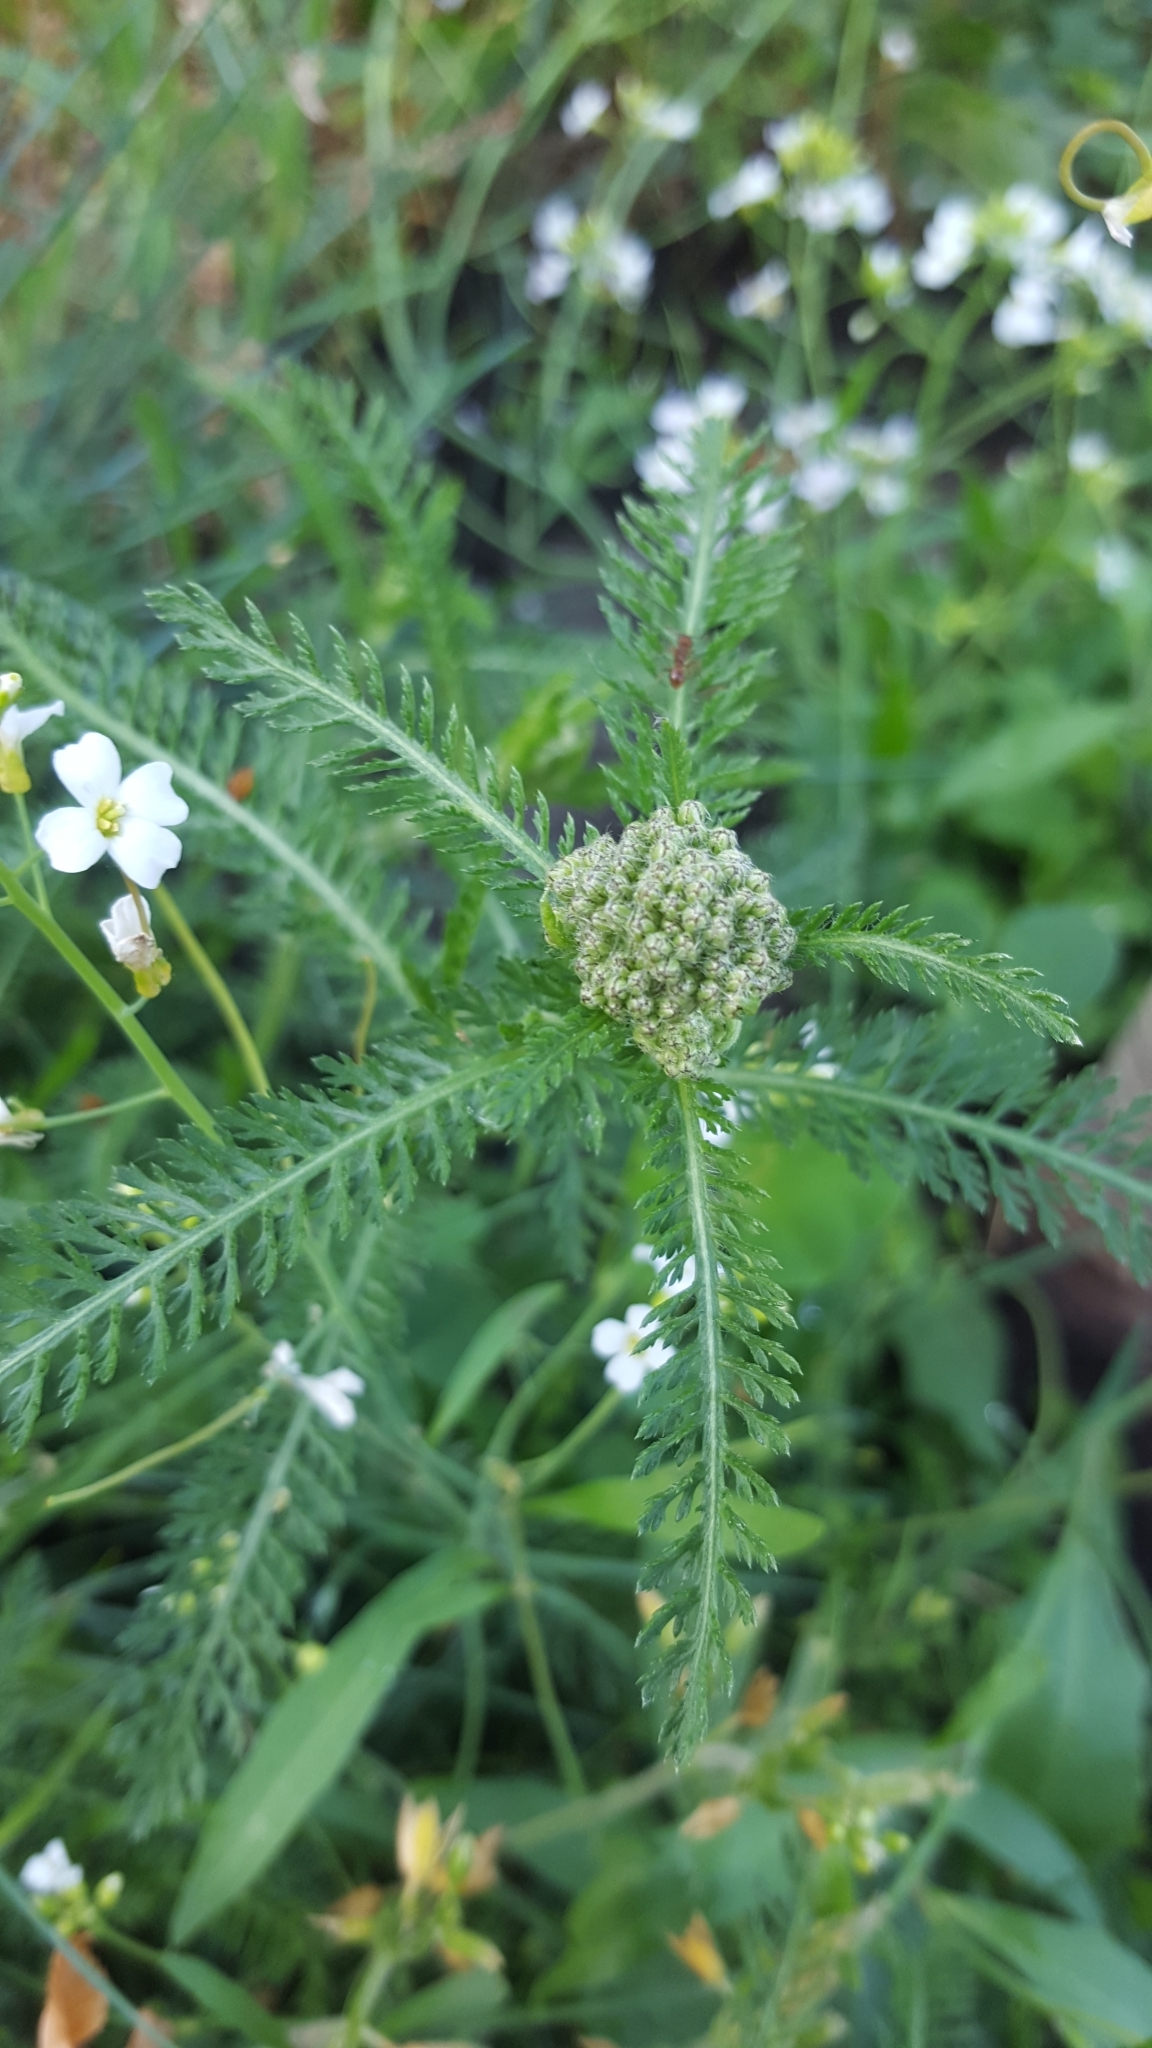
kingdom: Plantae
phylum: Tracheophyta
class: Magnoliopsida
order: Asterales
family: Asteraceae
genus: Achillea
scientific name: Achillea millefolium
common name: Yarrow
